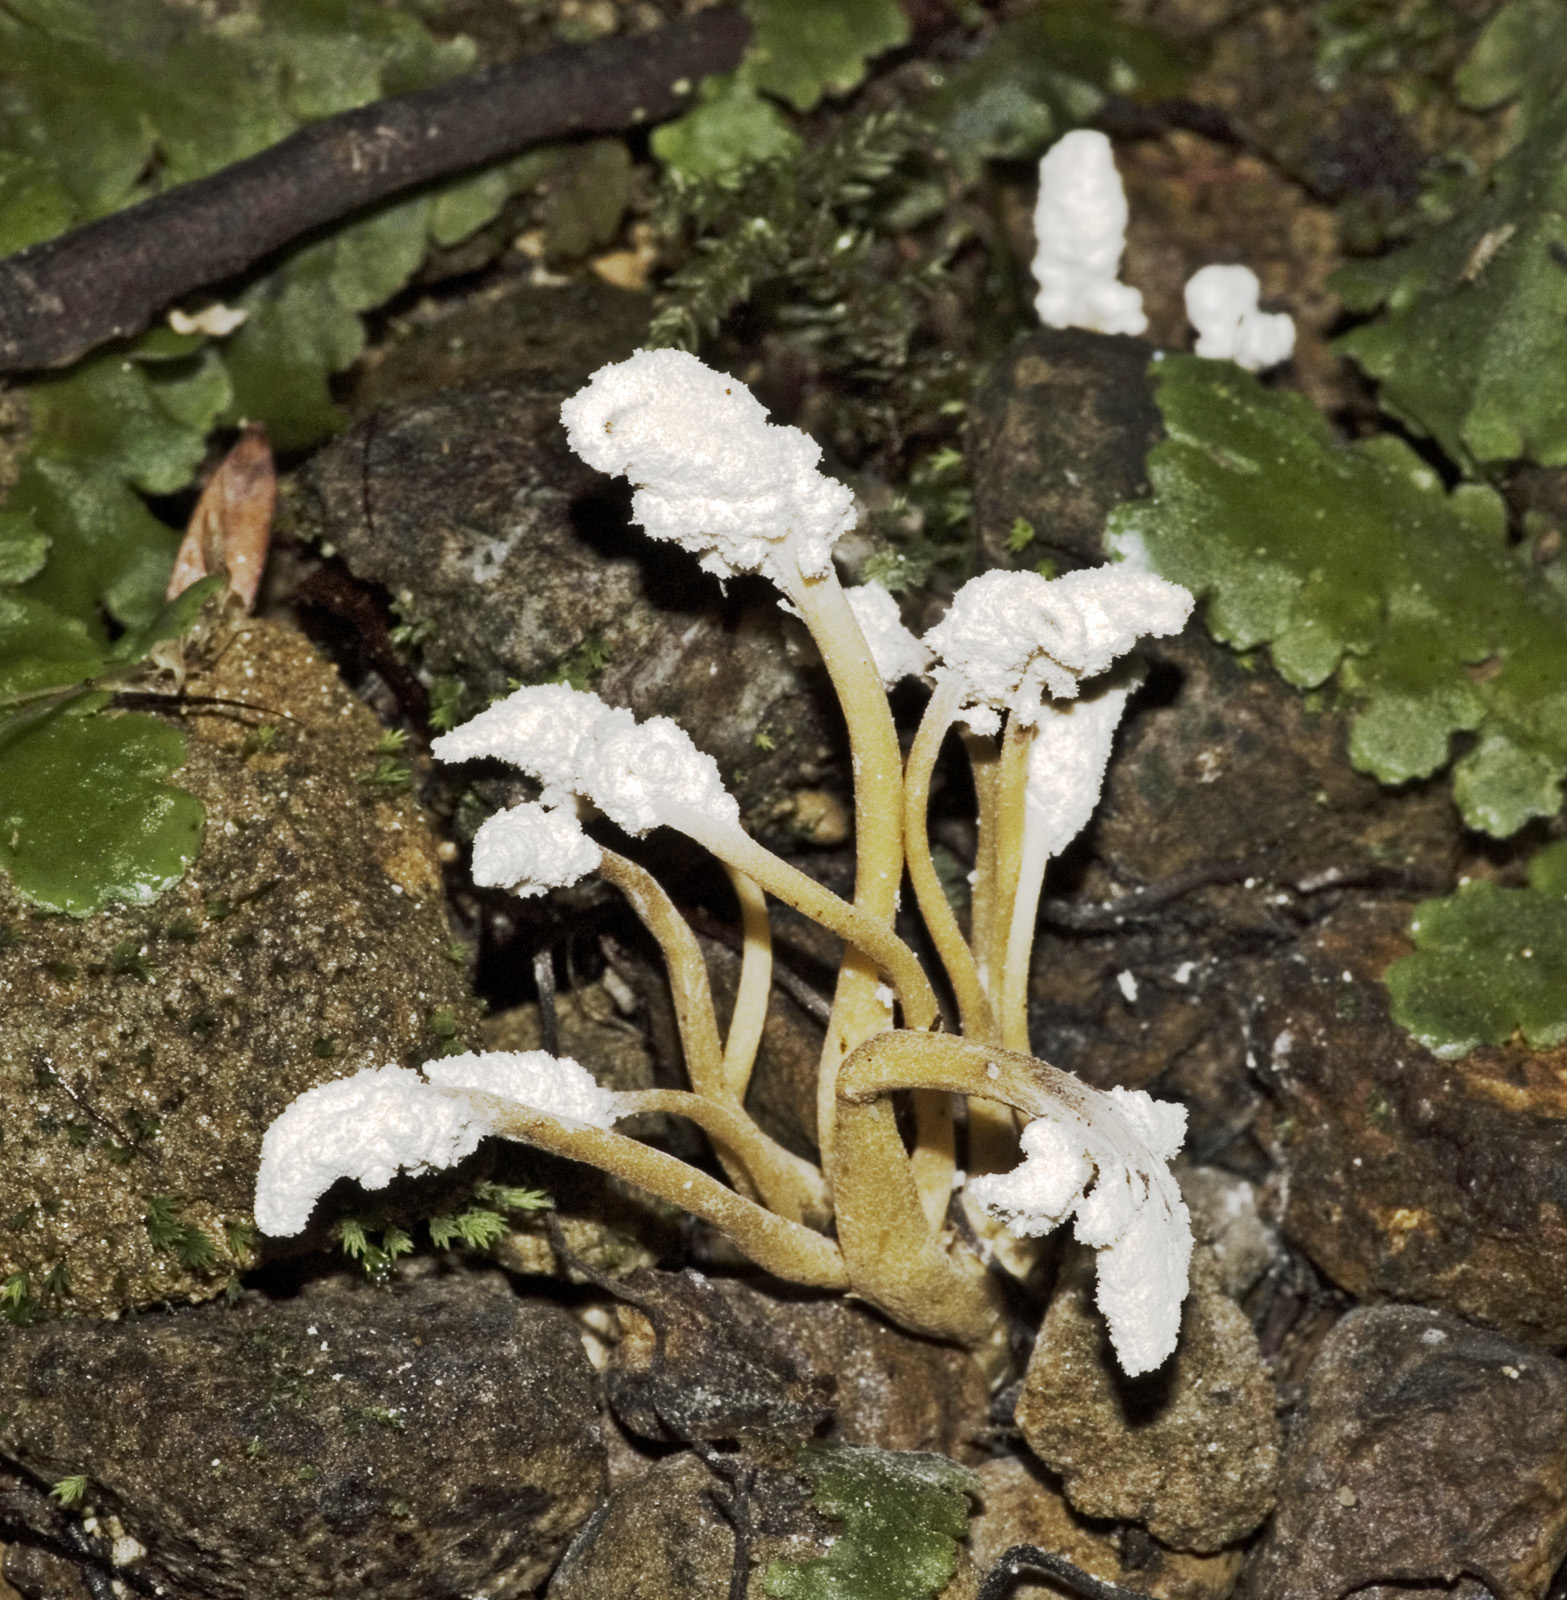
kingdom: Fungi
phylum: Ascomycota
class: Sordariomycetes
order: Hypocreales
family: Cordycipitaceae
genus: Cordyceps
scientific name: Cordyceps tenuipes
